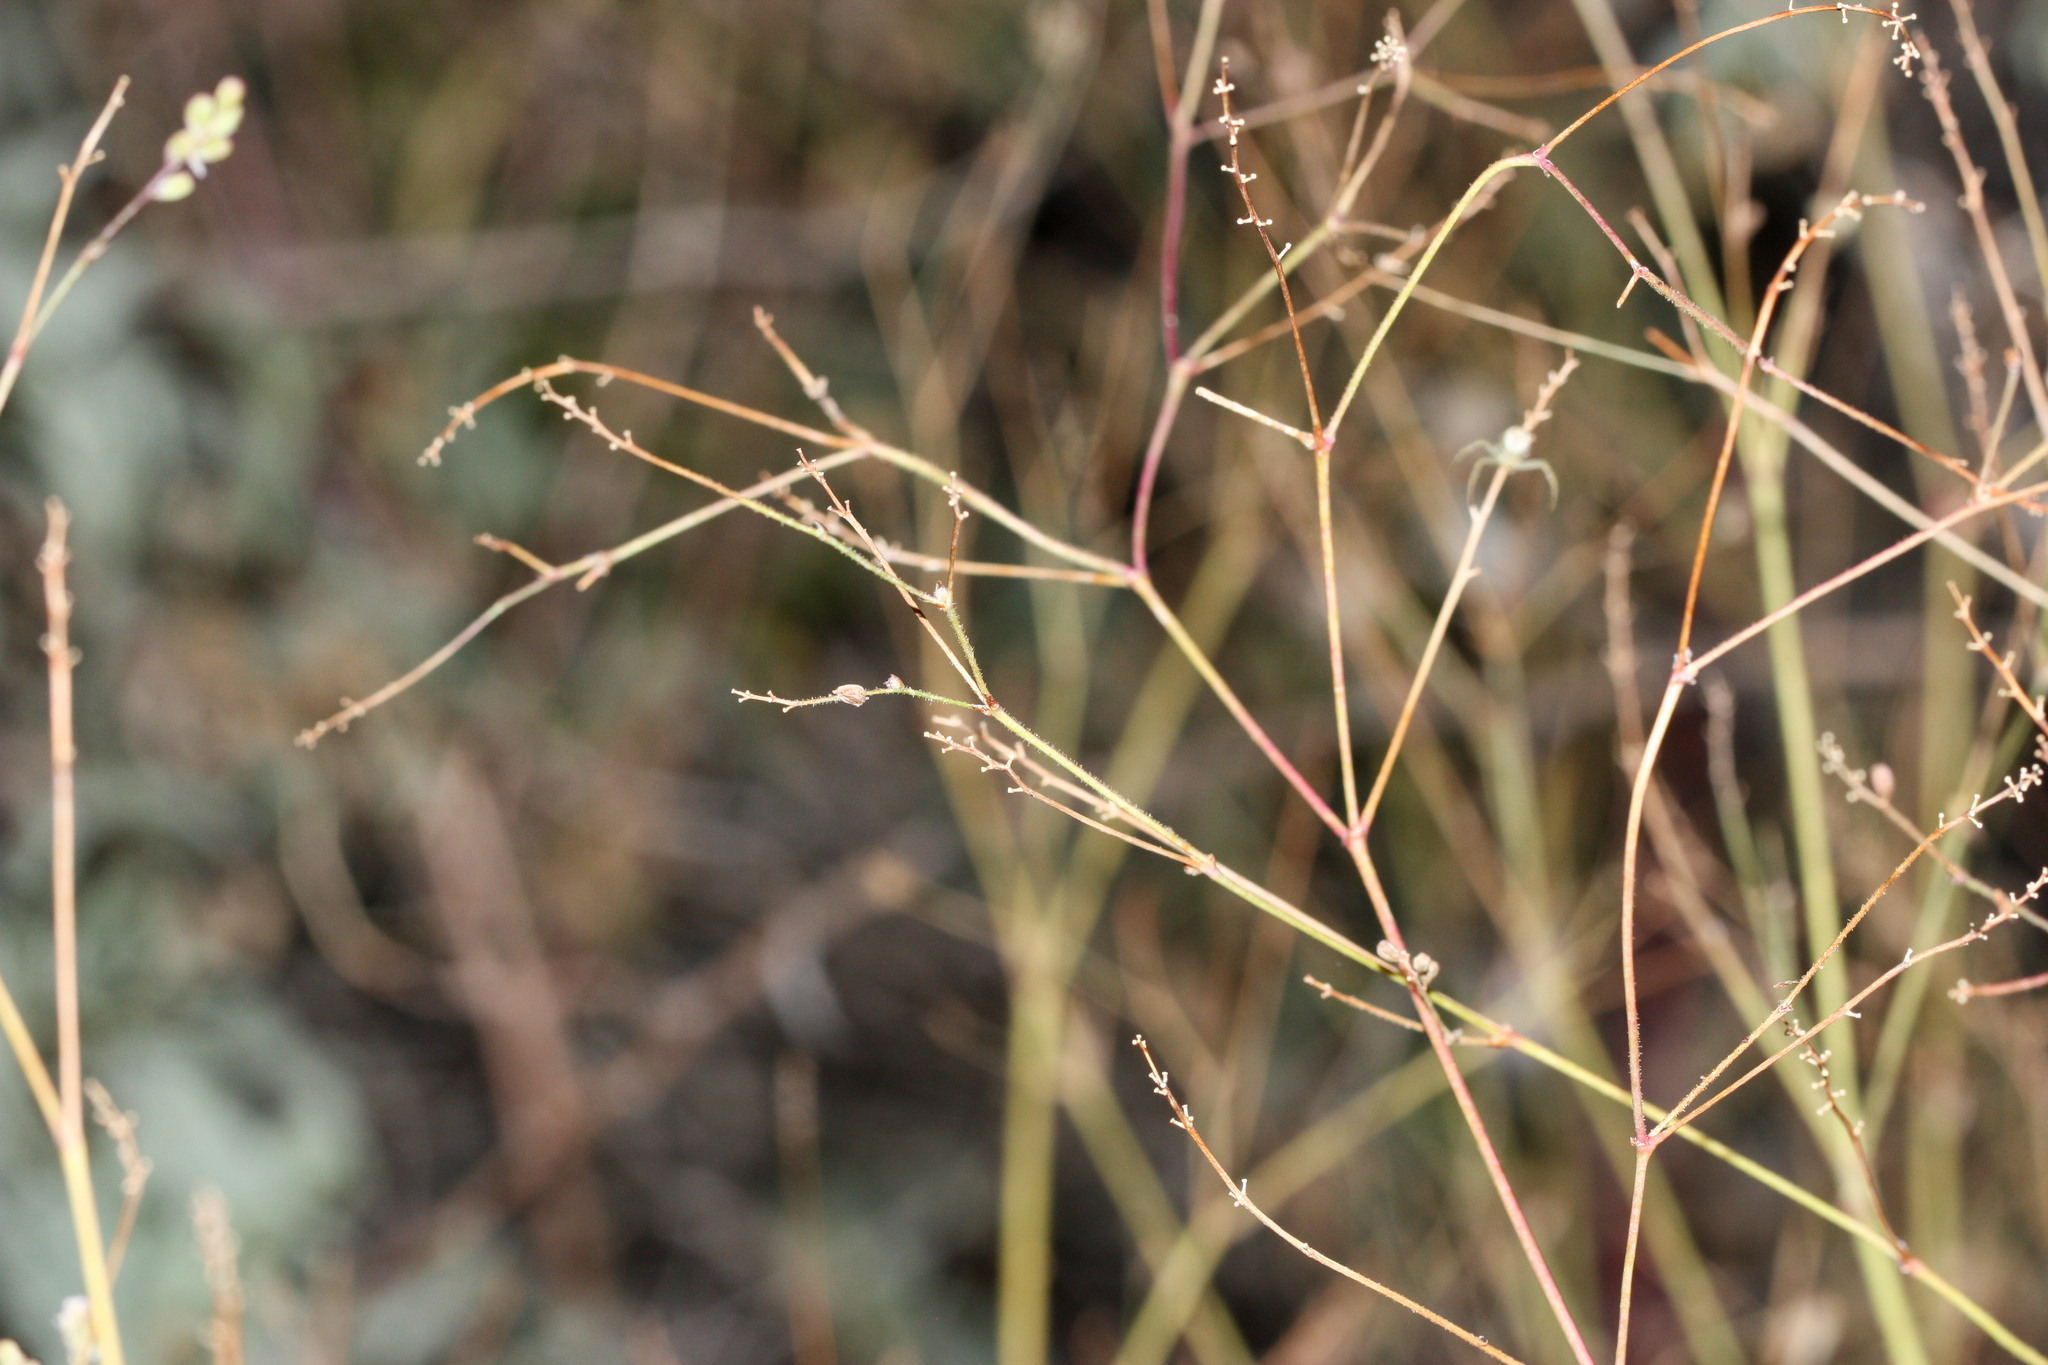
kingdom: Plantae
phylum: Tracheophyta
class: Magnoliopsida
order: Caryophyllales
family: Nyctaginaceae
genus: Boerhavia
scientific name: Boerhavia
